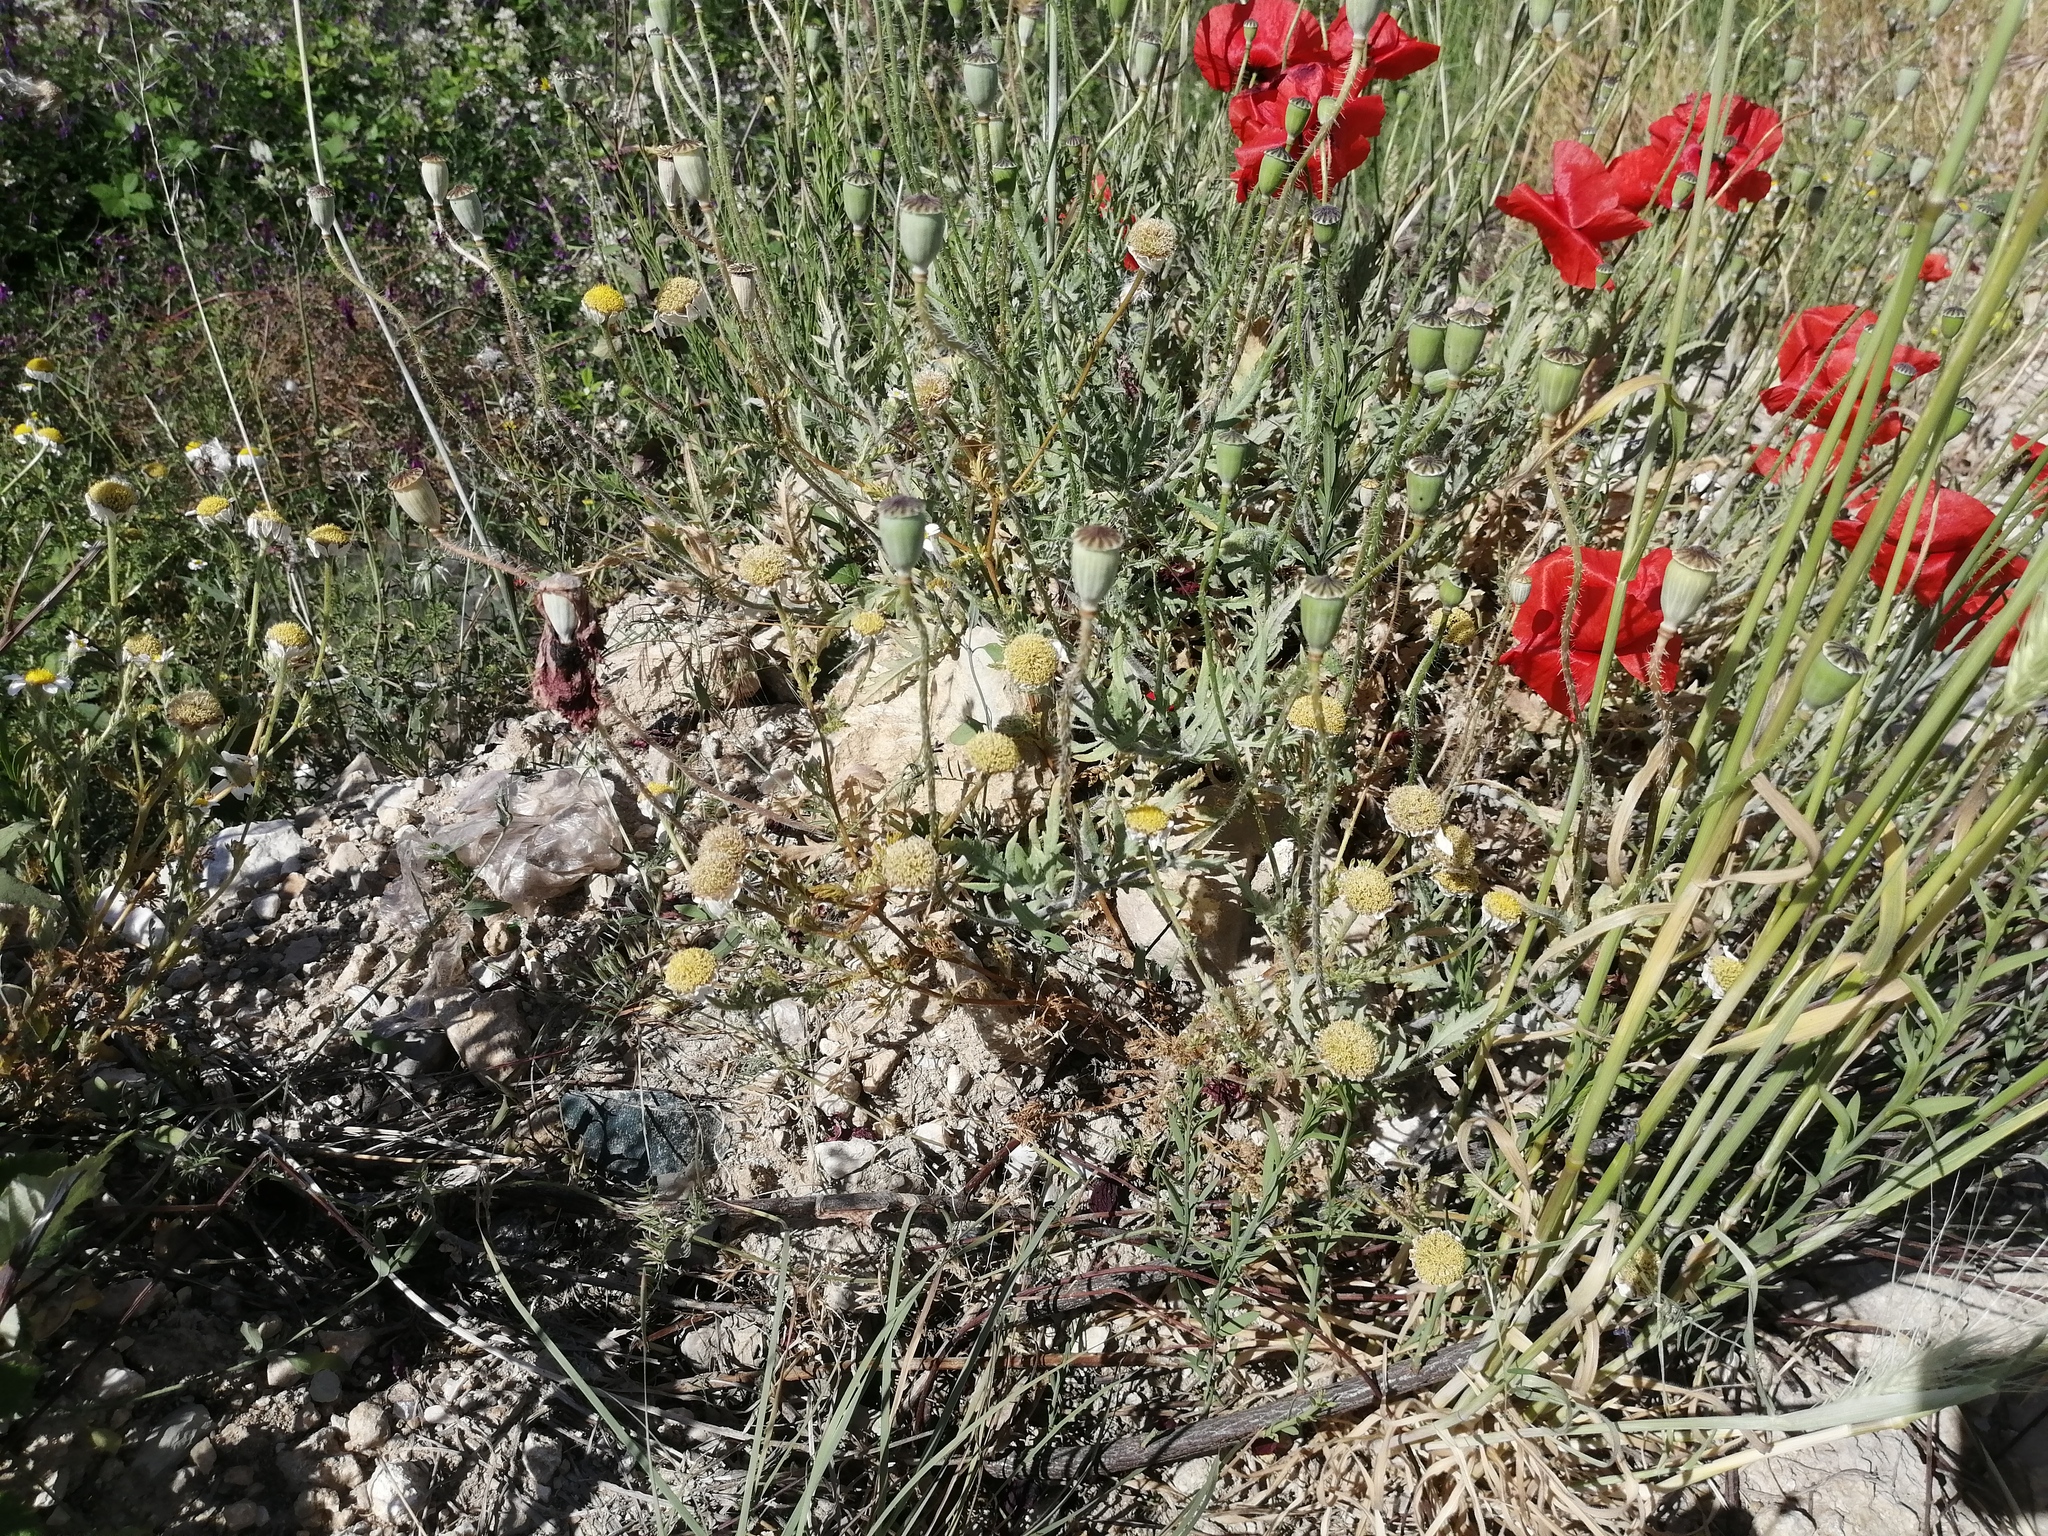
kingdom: Plantae
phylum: Tracheophyta
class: Magnoliopsida
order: Ranunculales
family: Papaveraceae
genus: Papaver
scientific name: Papaver rhoeas
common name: Corn poppy
